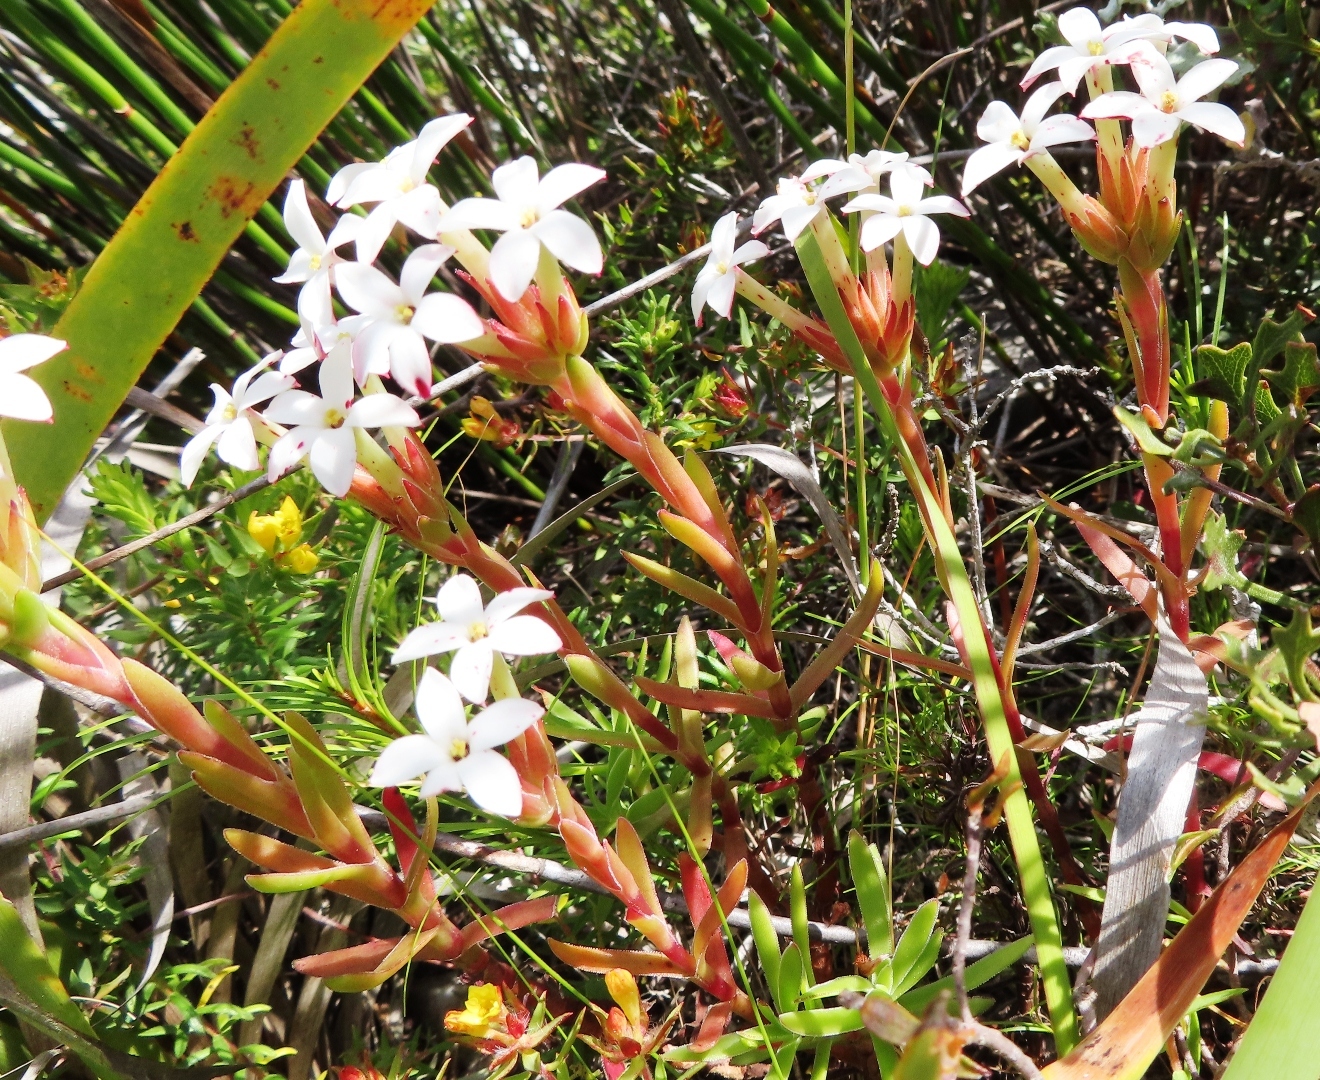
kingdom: Plantae
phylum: Tracheophyta
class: Magnoliopsida
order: Saxifragales
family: Crassulaceae
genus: Crassula
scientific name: Crassula fascicularis
